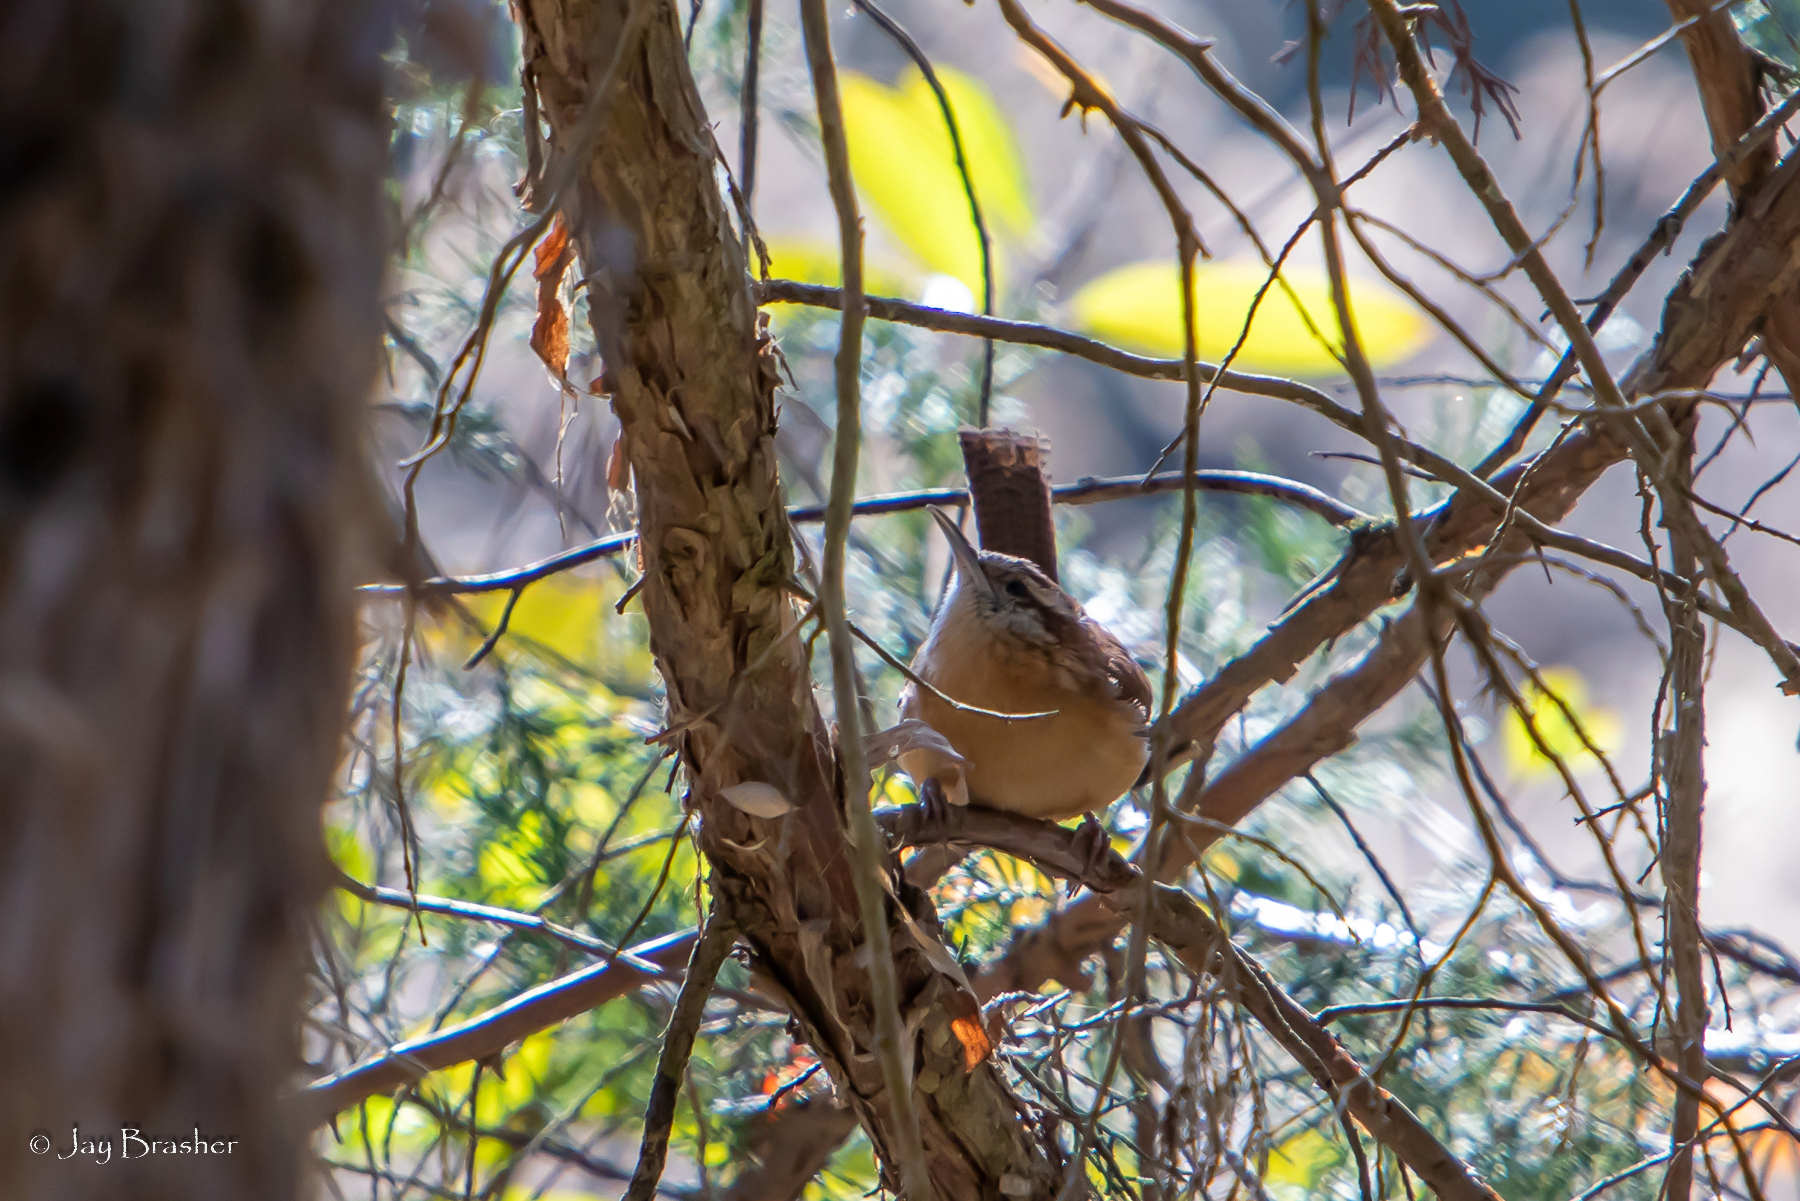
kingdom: Animalia
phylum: Chordata
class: Aves
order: Passeriformes
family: Troglodytidae
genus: Thryothorus
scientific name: Thryothorus ludovicianus
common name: Carolina wren
